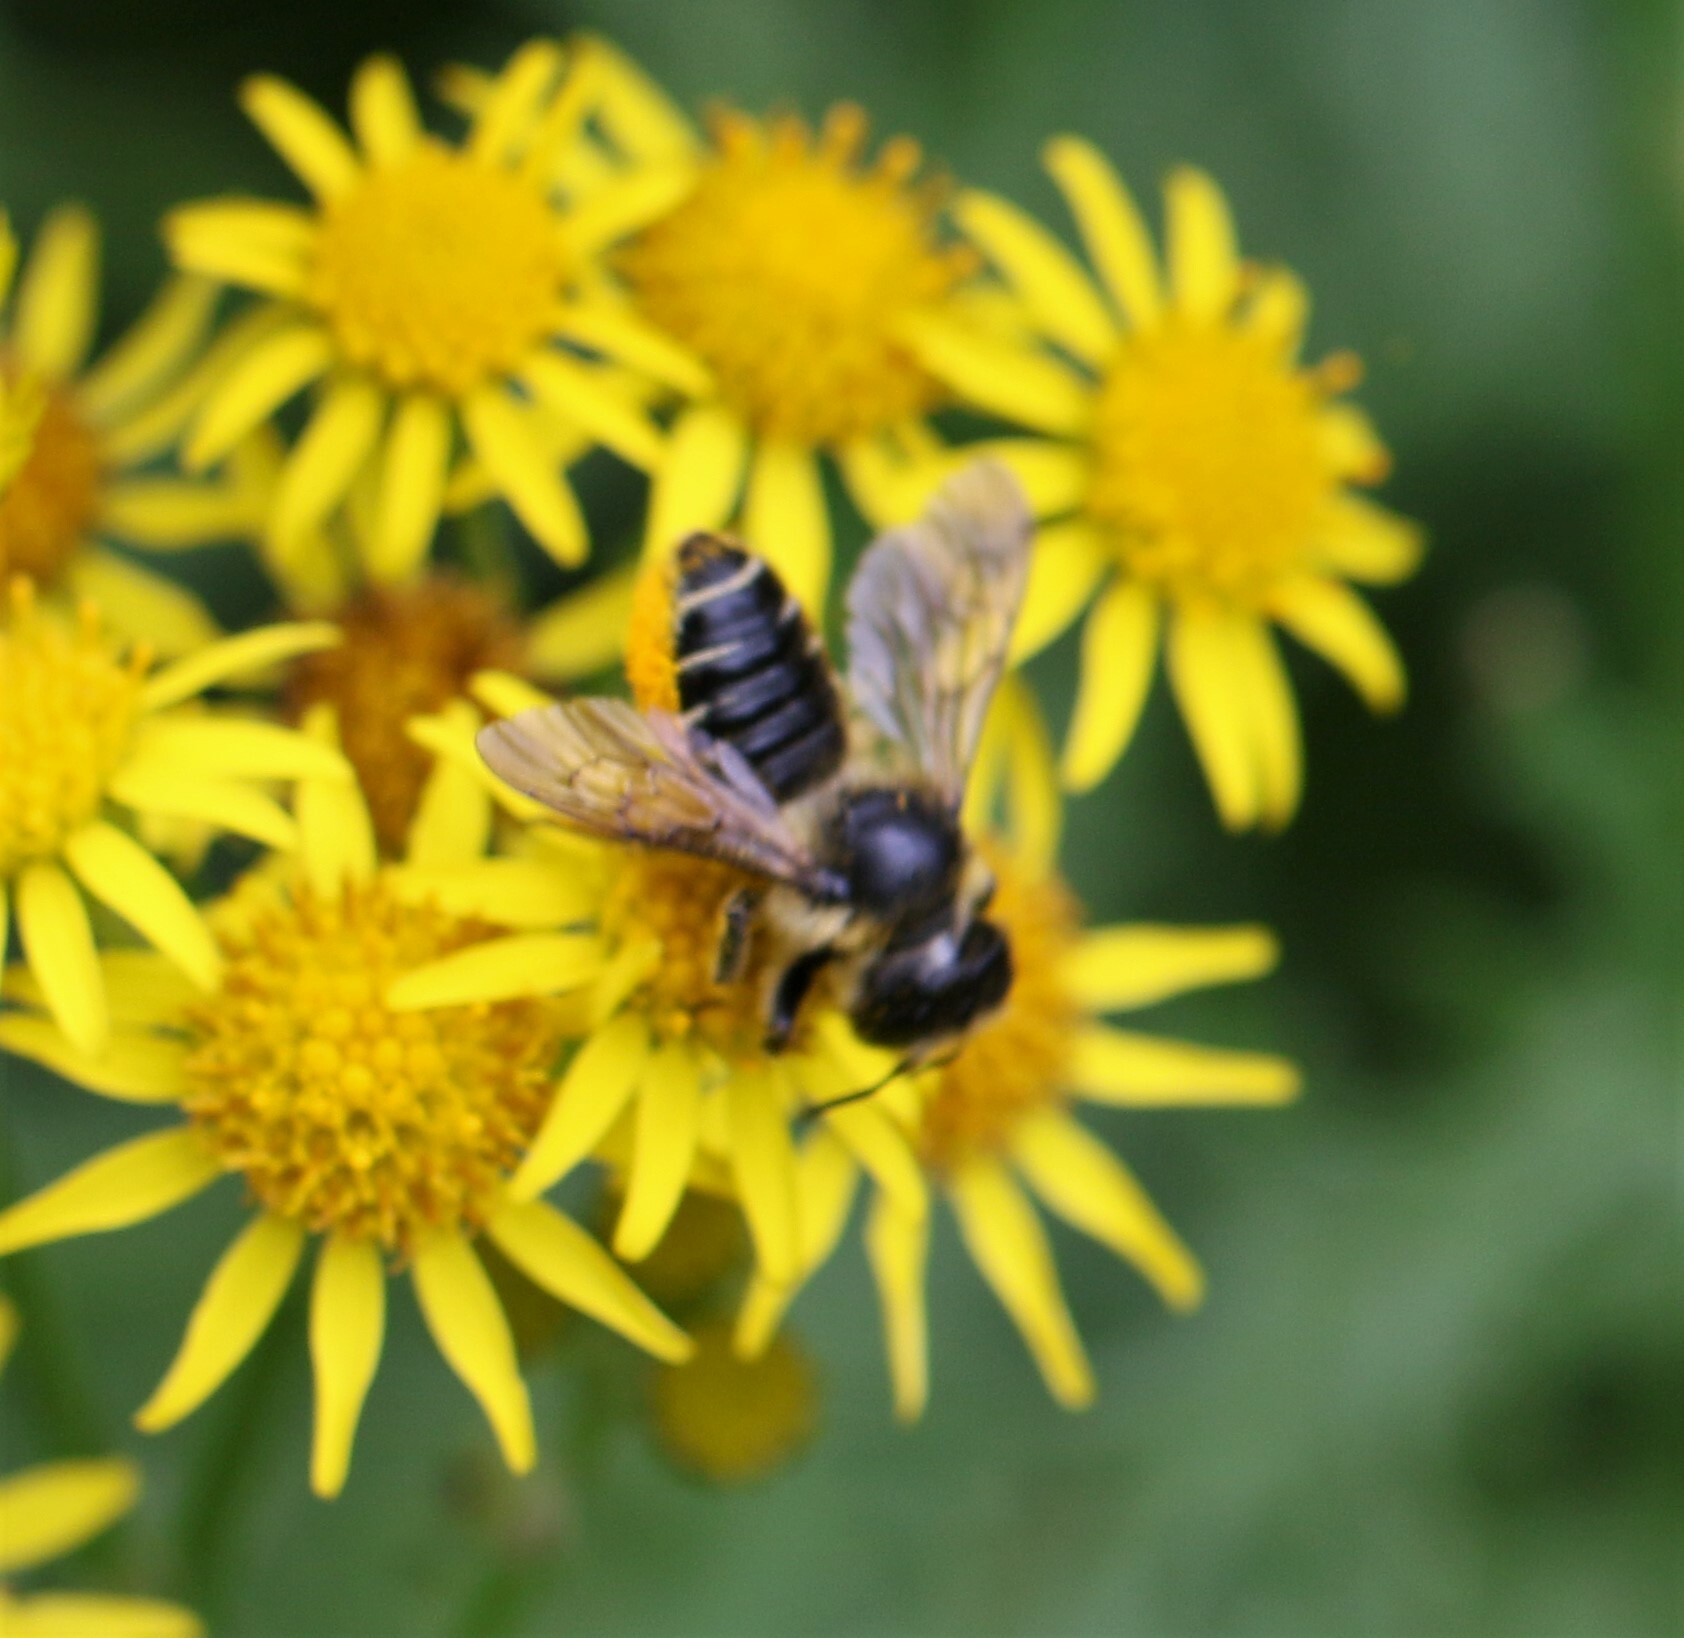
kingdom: Animalia
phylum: Arthropoda
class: Insecta
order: Hymenoptera
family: Megachilidae
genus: Megachile
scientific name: Megachile inermis
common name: Unarmed leafcutter bee
